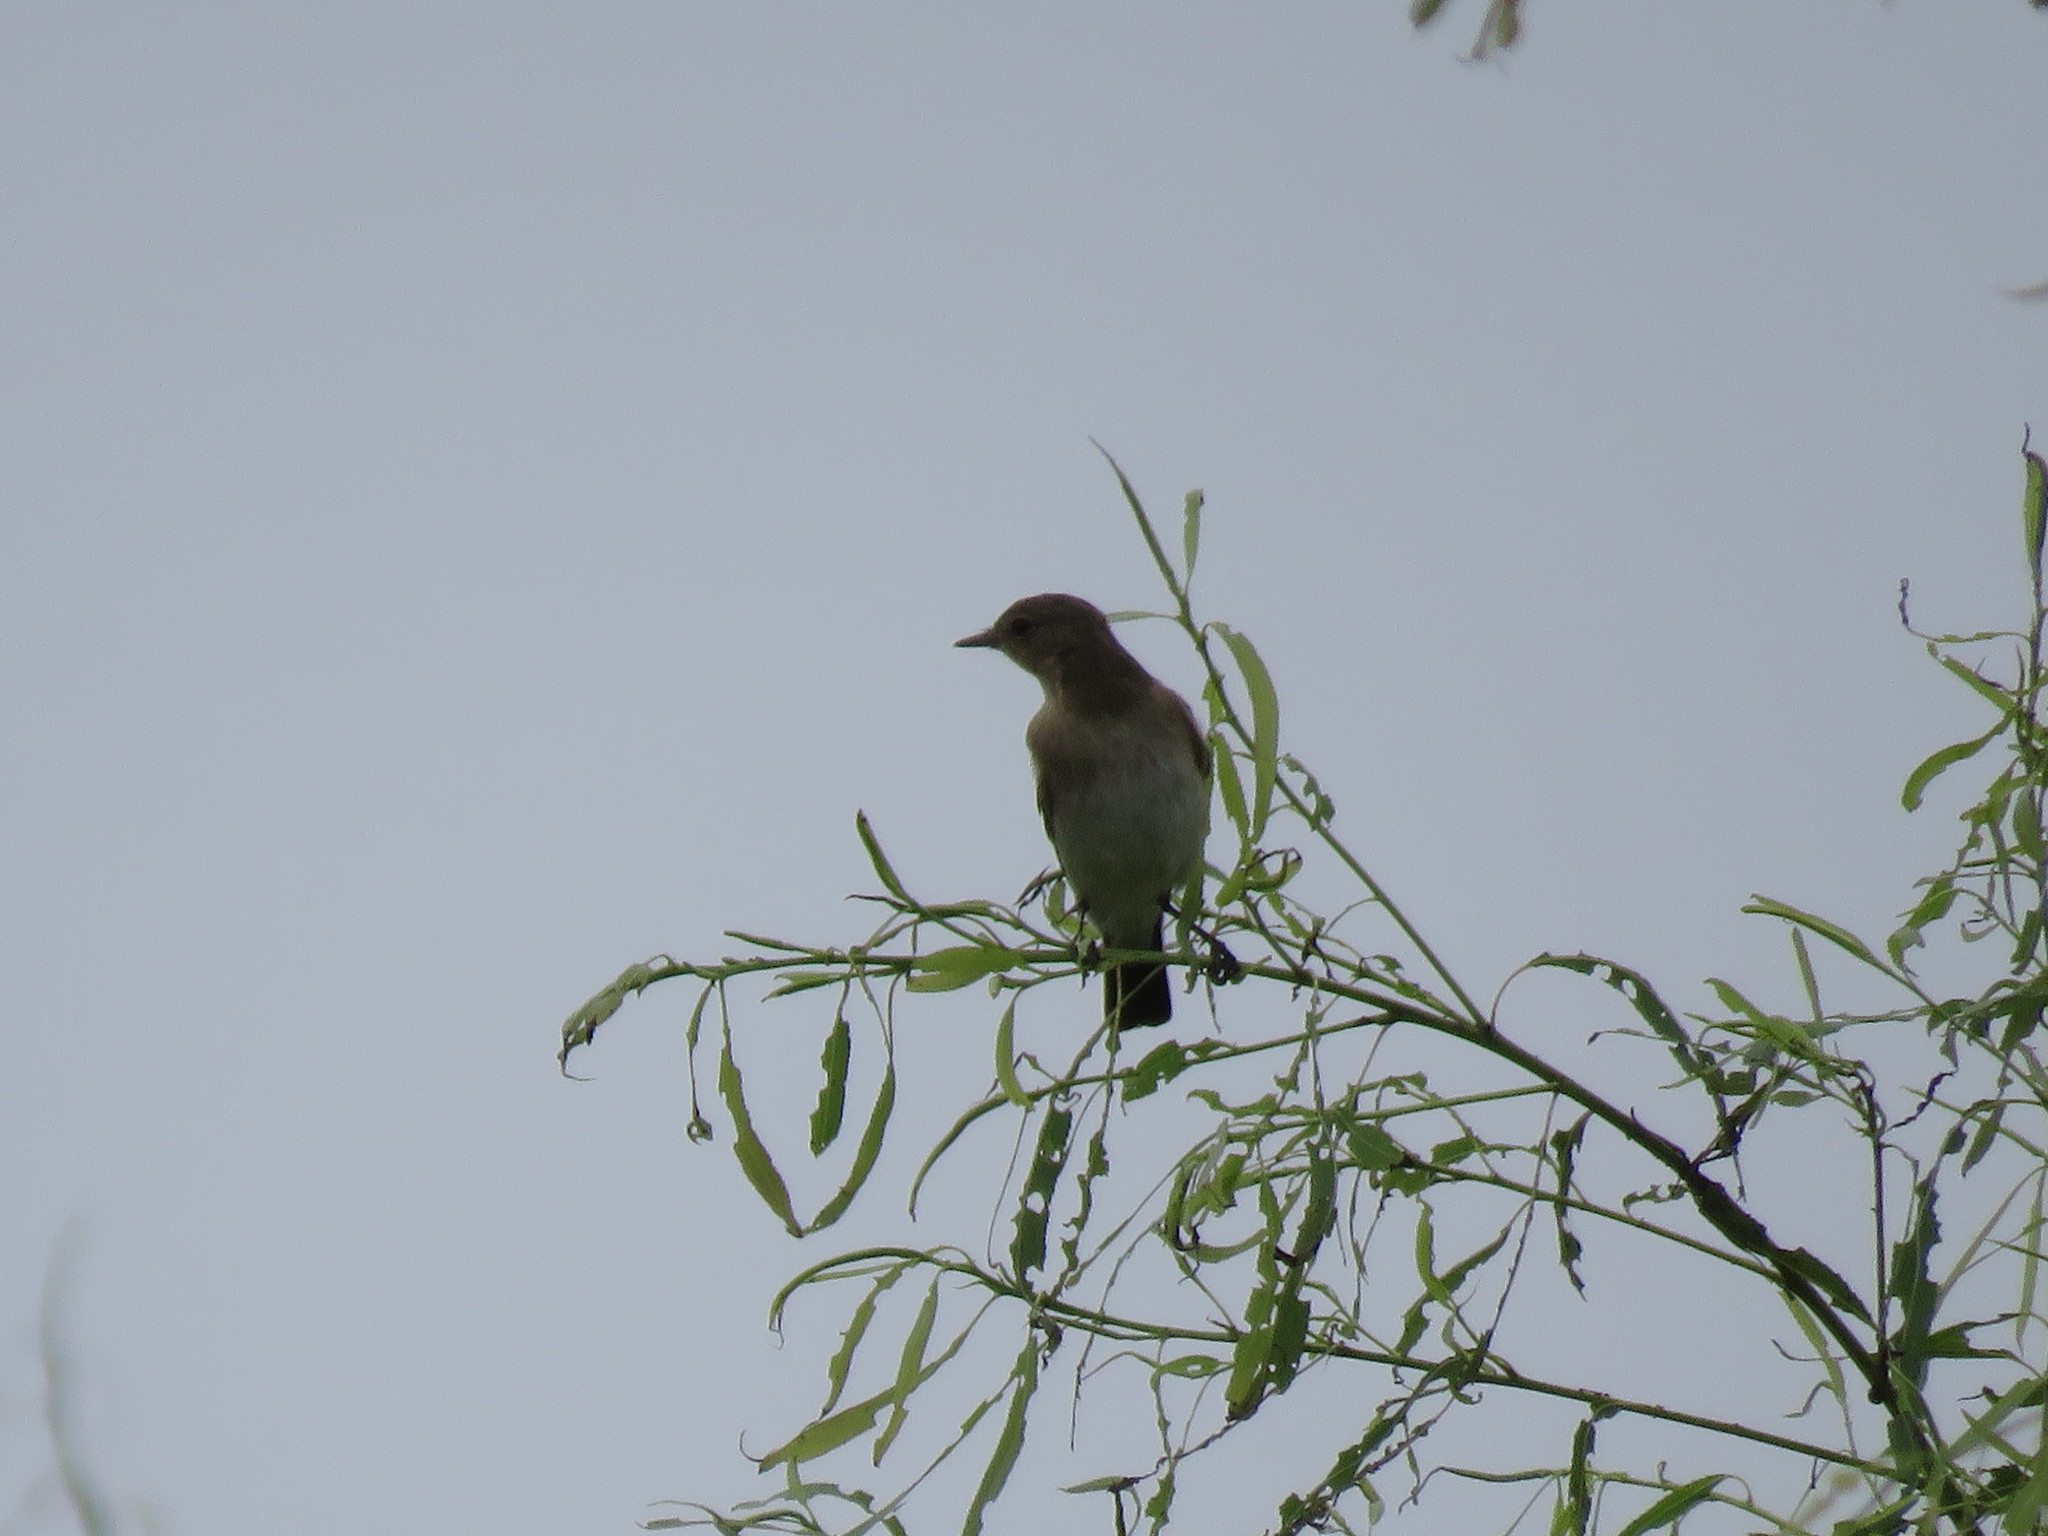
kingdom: Animalia
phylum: Chordata
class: Aves
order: Passeriformes
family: Tyrannidae
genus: Elaenia
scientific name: Elaenia pelzelni
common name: Brownish elaenia
